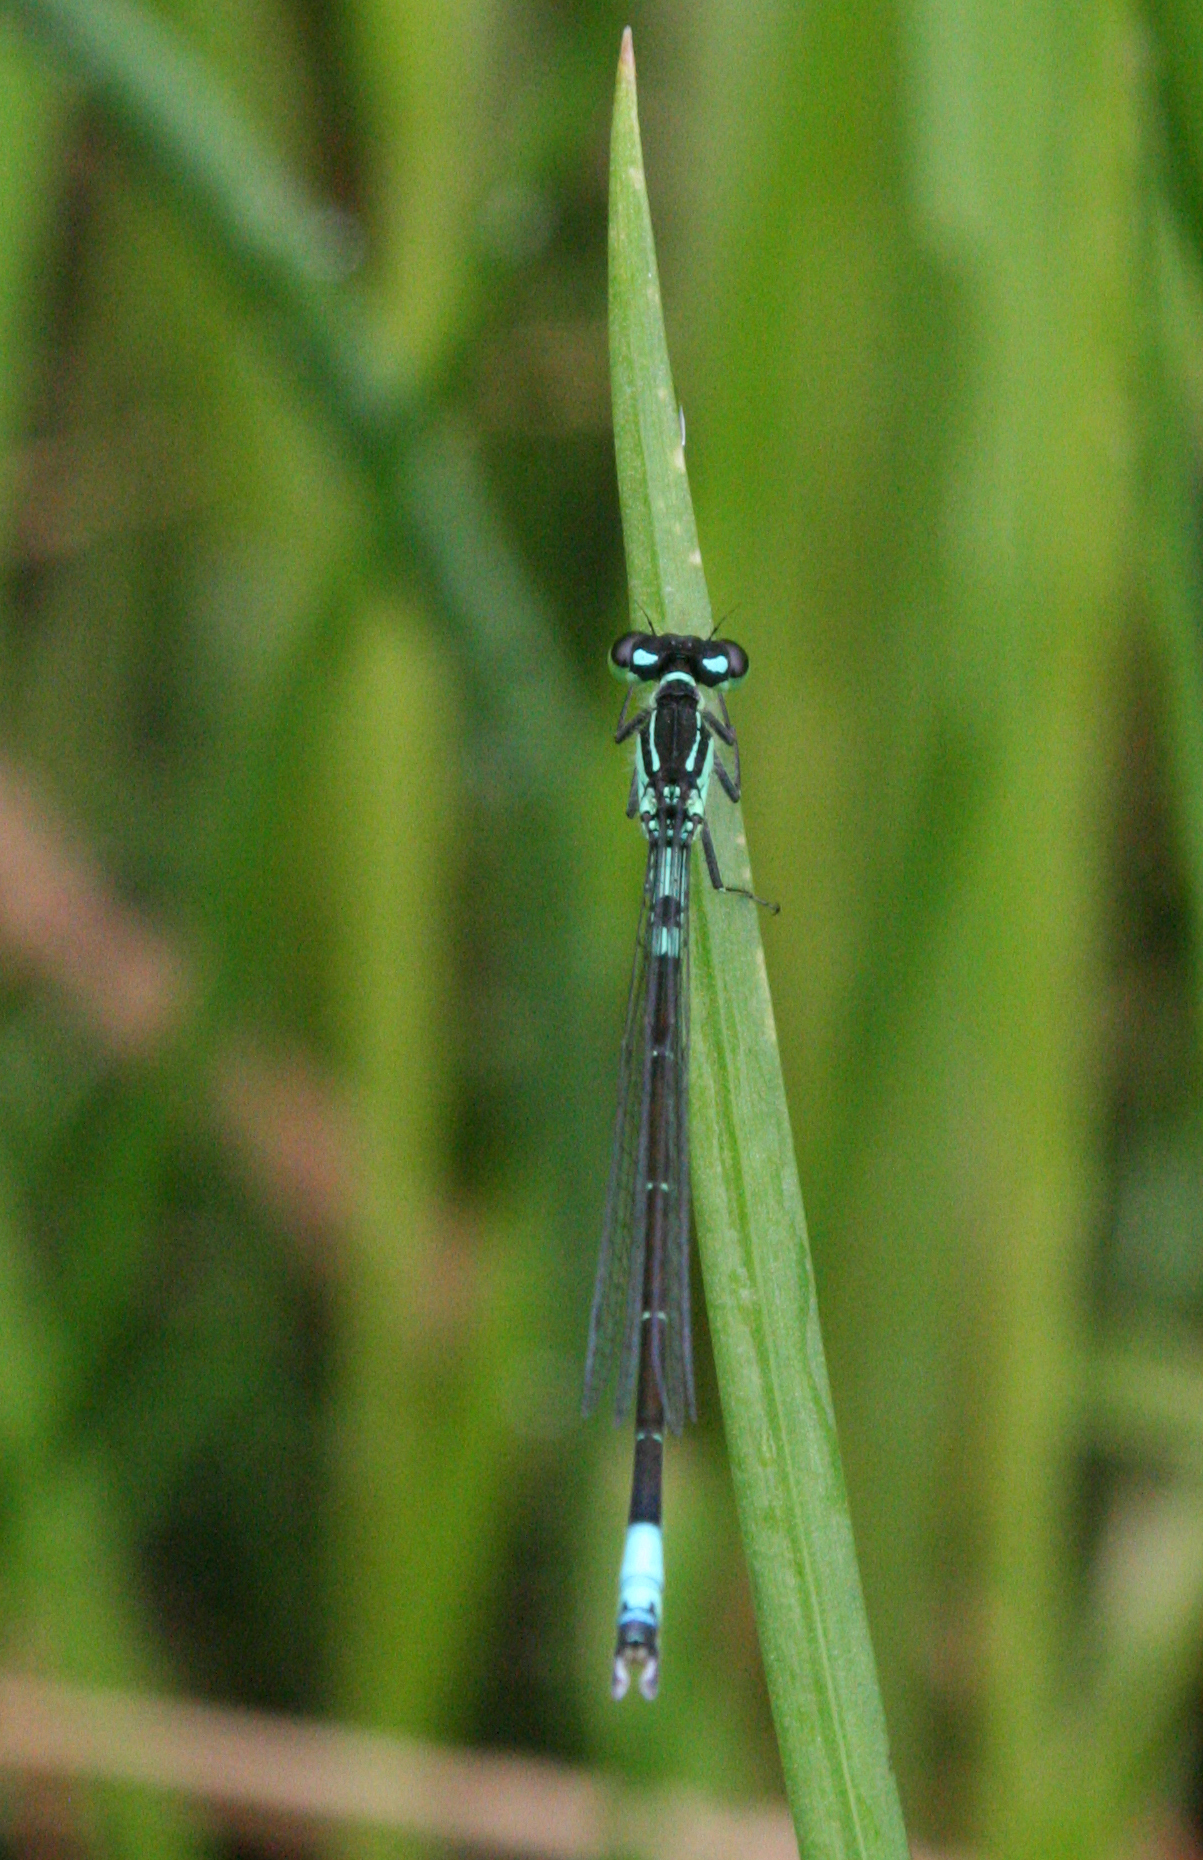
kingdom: Animalia
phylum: Arthropoda
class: Insecta
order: Odonata
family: Coenagrionidae
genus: Coenagrion
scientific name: Coenagrion armatum
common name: Dark bluet
